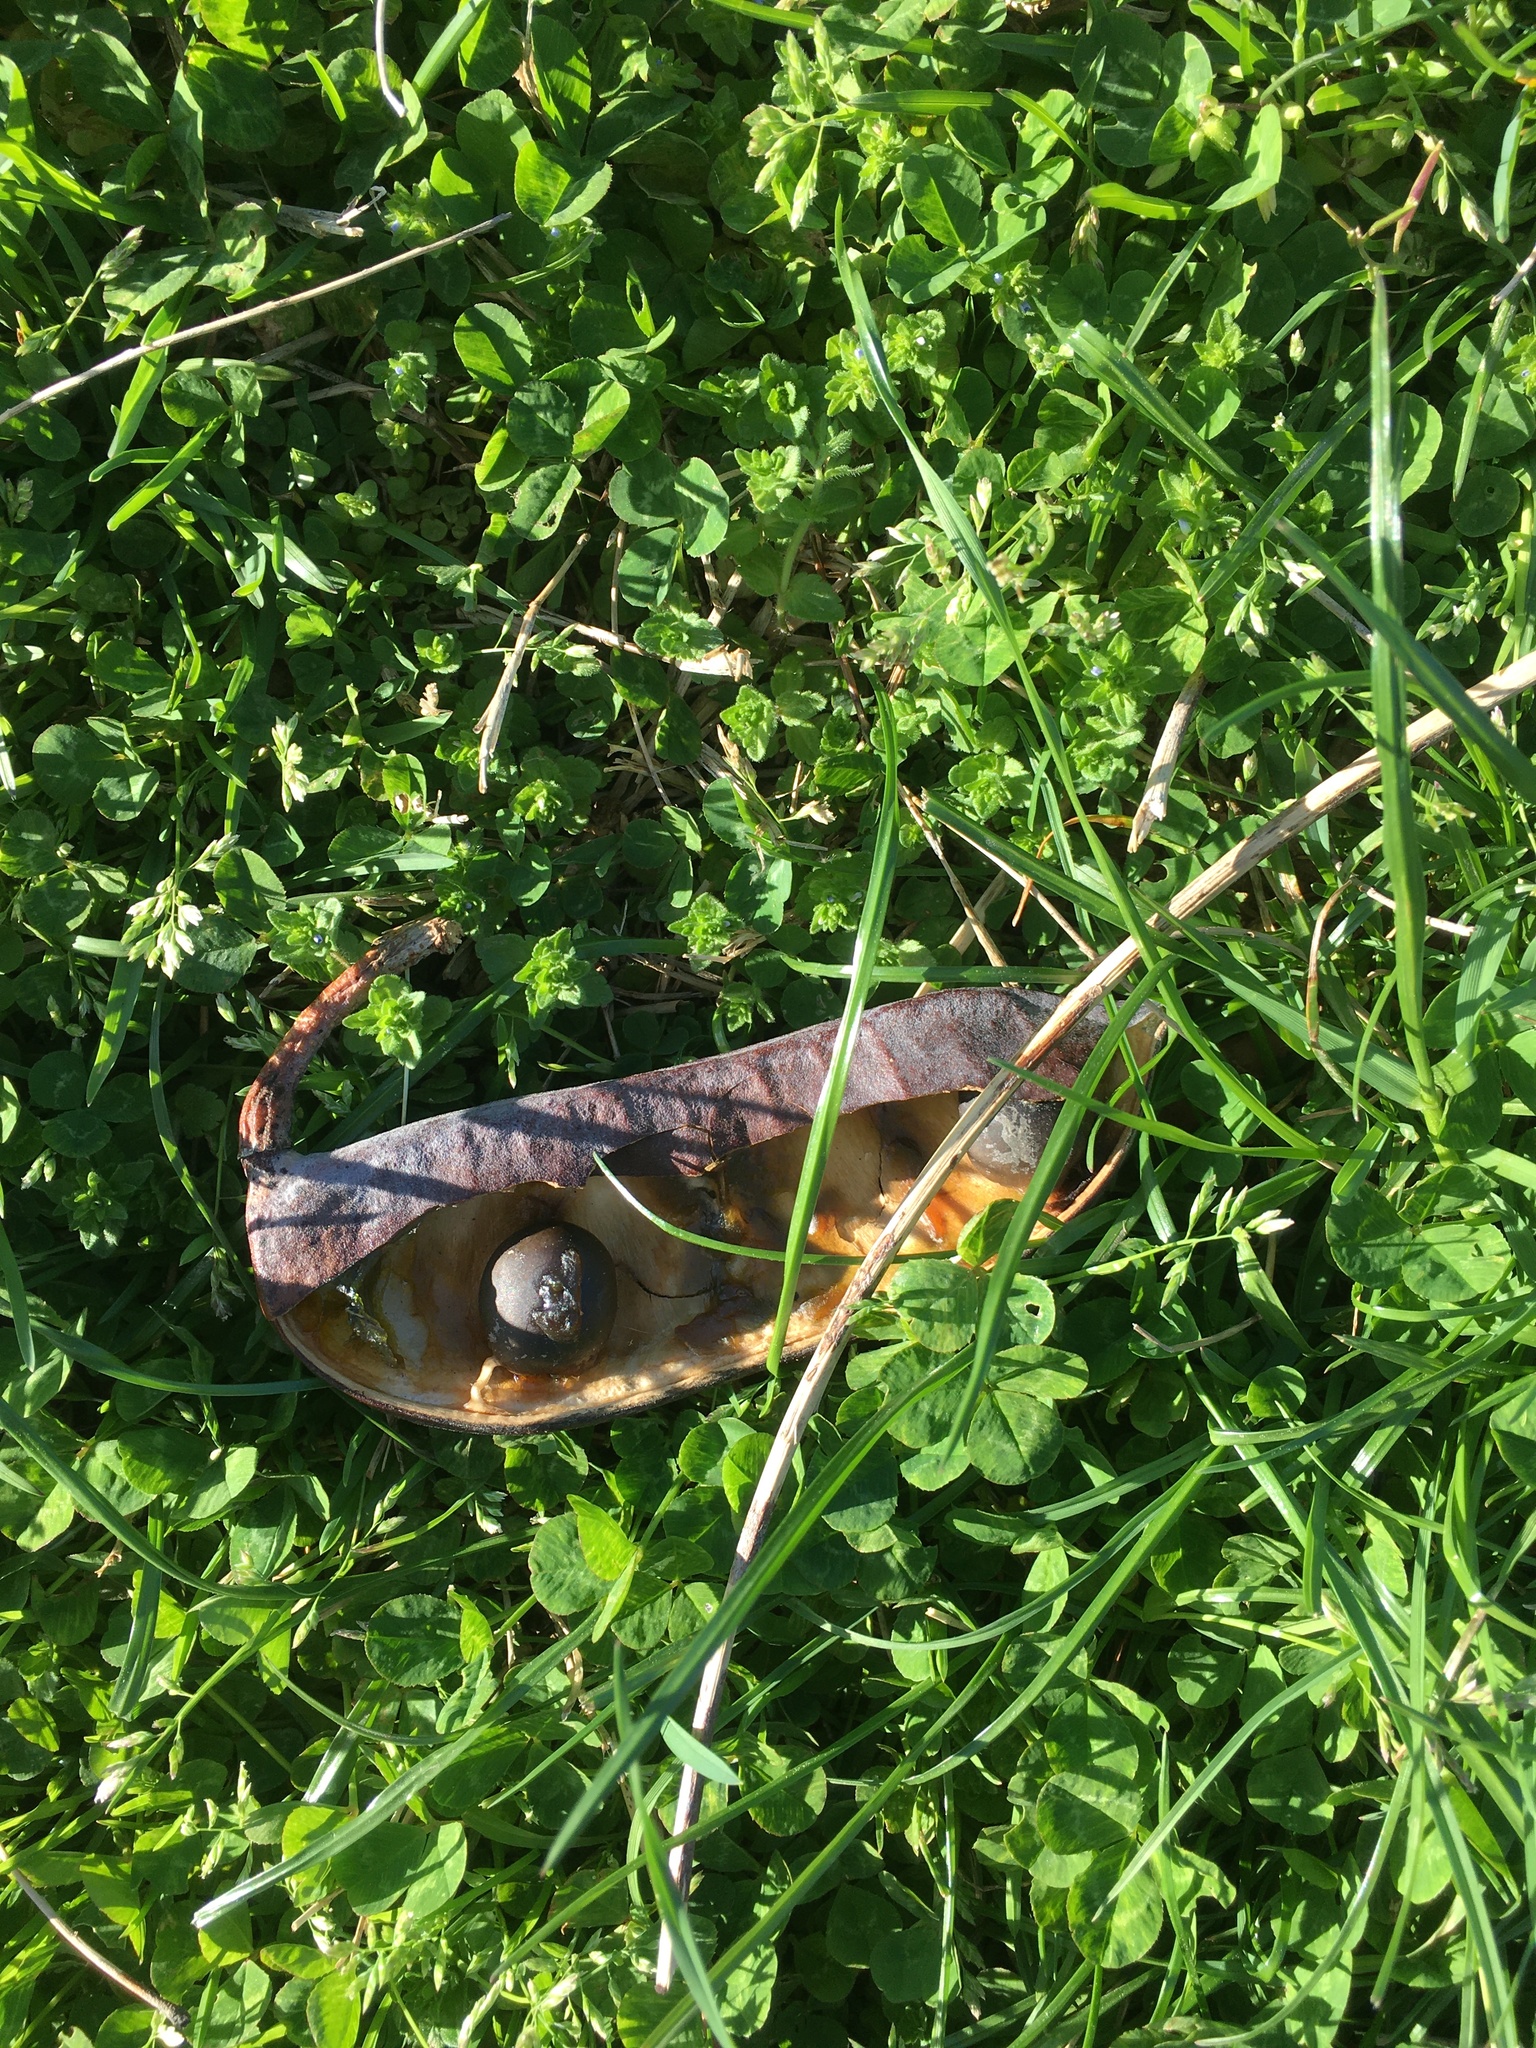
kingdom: Plantae
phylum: Tracheophyta
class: Magnoliopsida
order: Fabales
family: Fabaceae
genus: Gymnocladus
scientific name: Gymnocladus dioicus
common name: Kentucky coffee-tree
